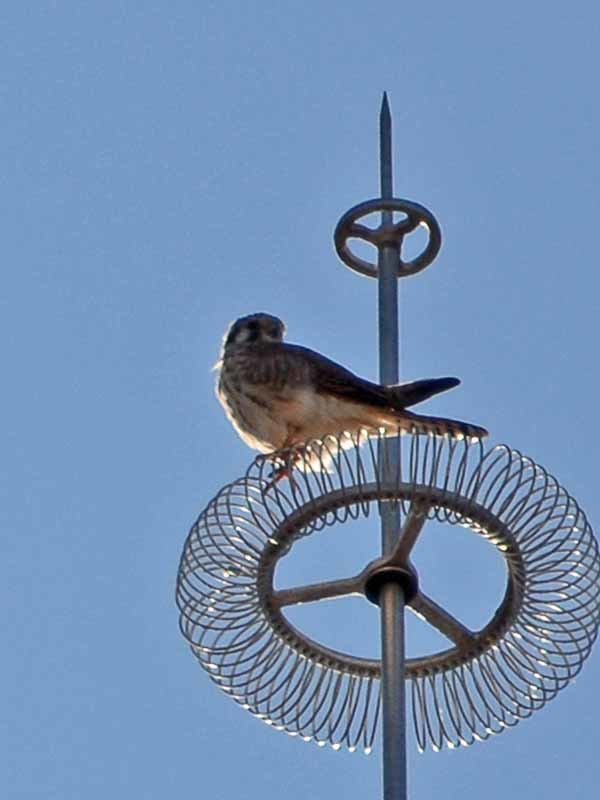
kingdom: Animalia
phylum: Chordata
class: Aves
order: Falconiformes
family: Falconidae
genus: Falco
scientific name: Falco sparverius
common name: American kestrel
